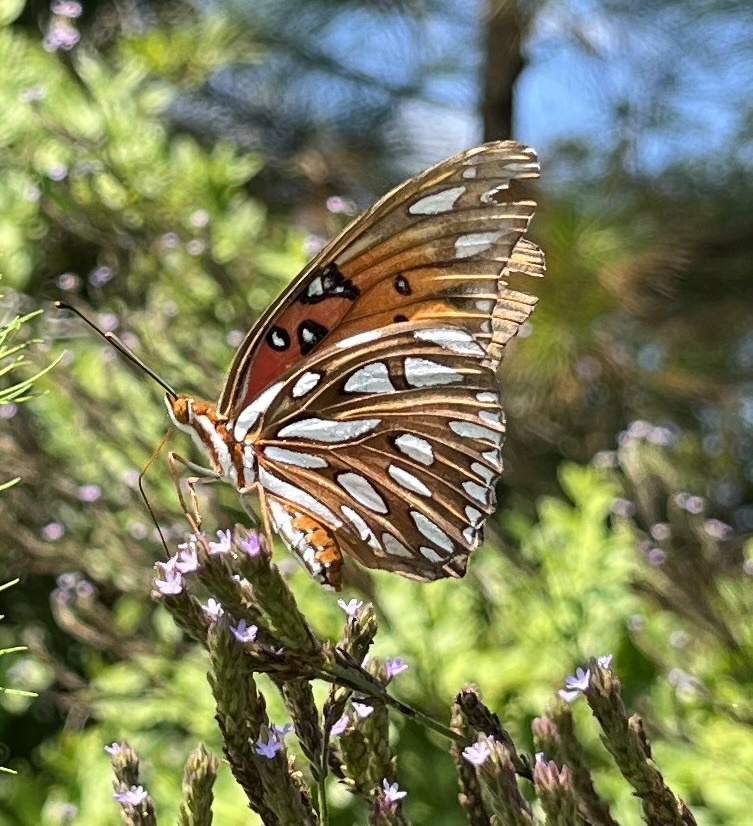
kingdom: Animalia
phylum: Arthropoda
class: Insecta
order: Lepidoptera
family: Nymphalidae
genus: Dione
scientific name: Dione vanillae
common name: Gulf fritillary
